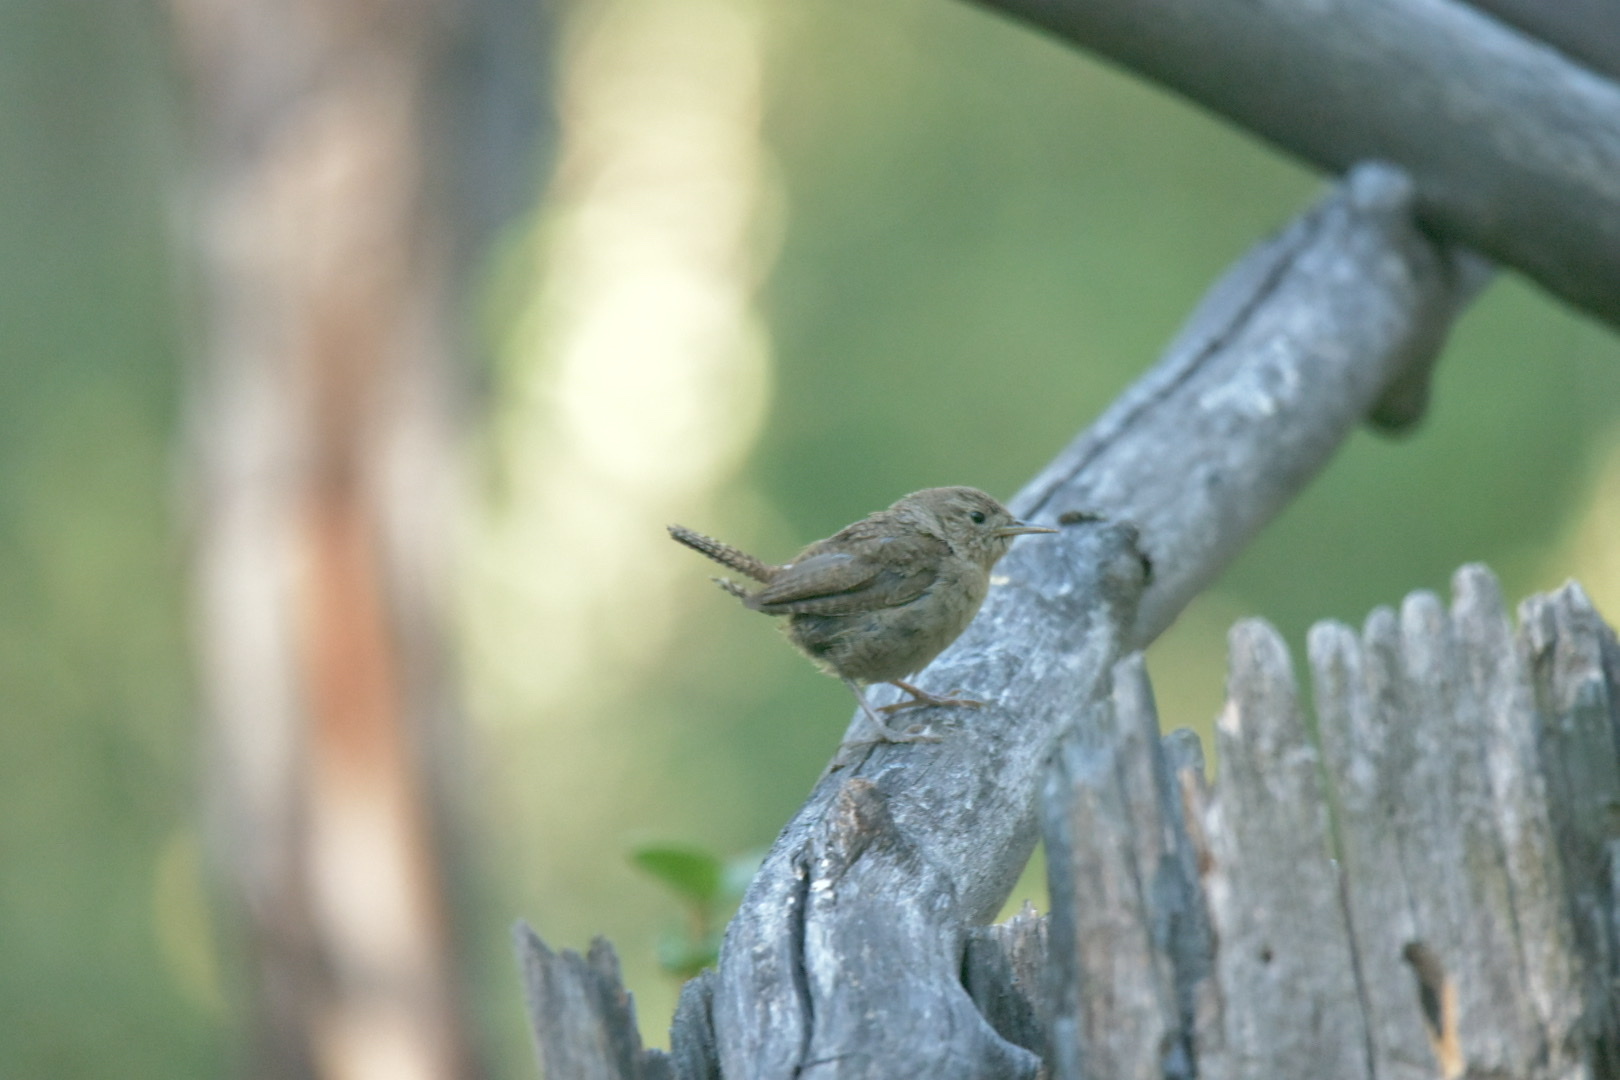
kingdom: Animalia
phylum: Chordata
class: Aves
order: Passeriformes
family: Troglodytidae
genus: Troglodytes
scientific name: Troglodytes aedon
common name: House wren
